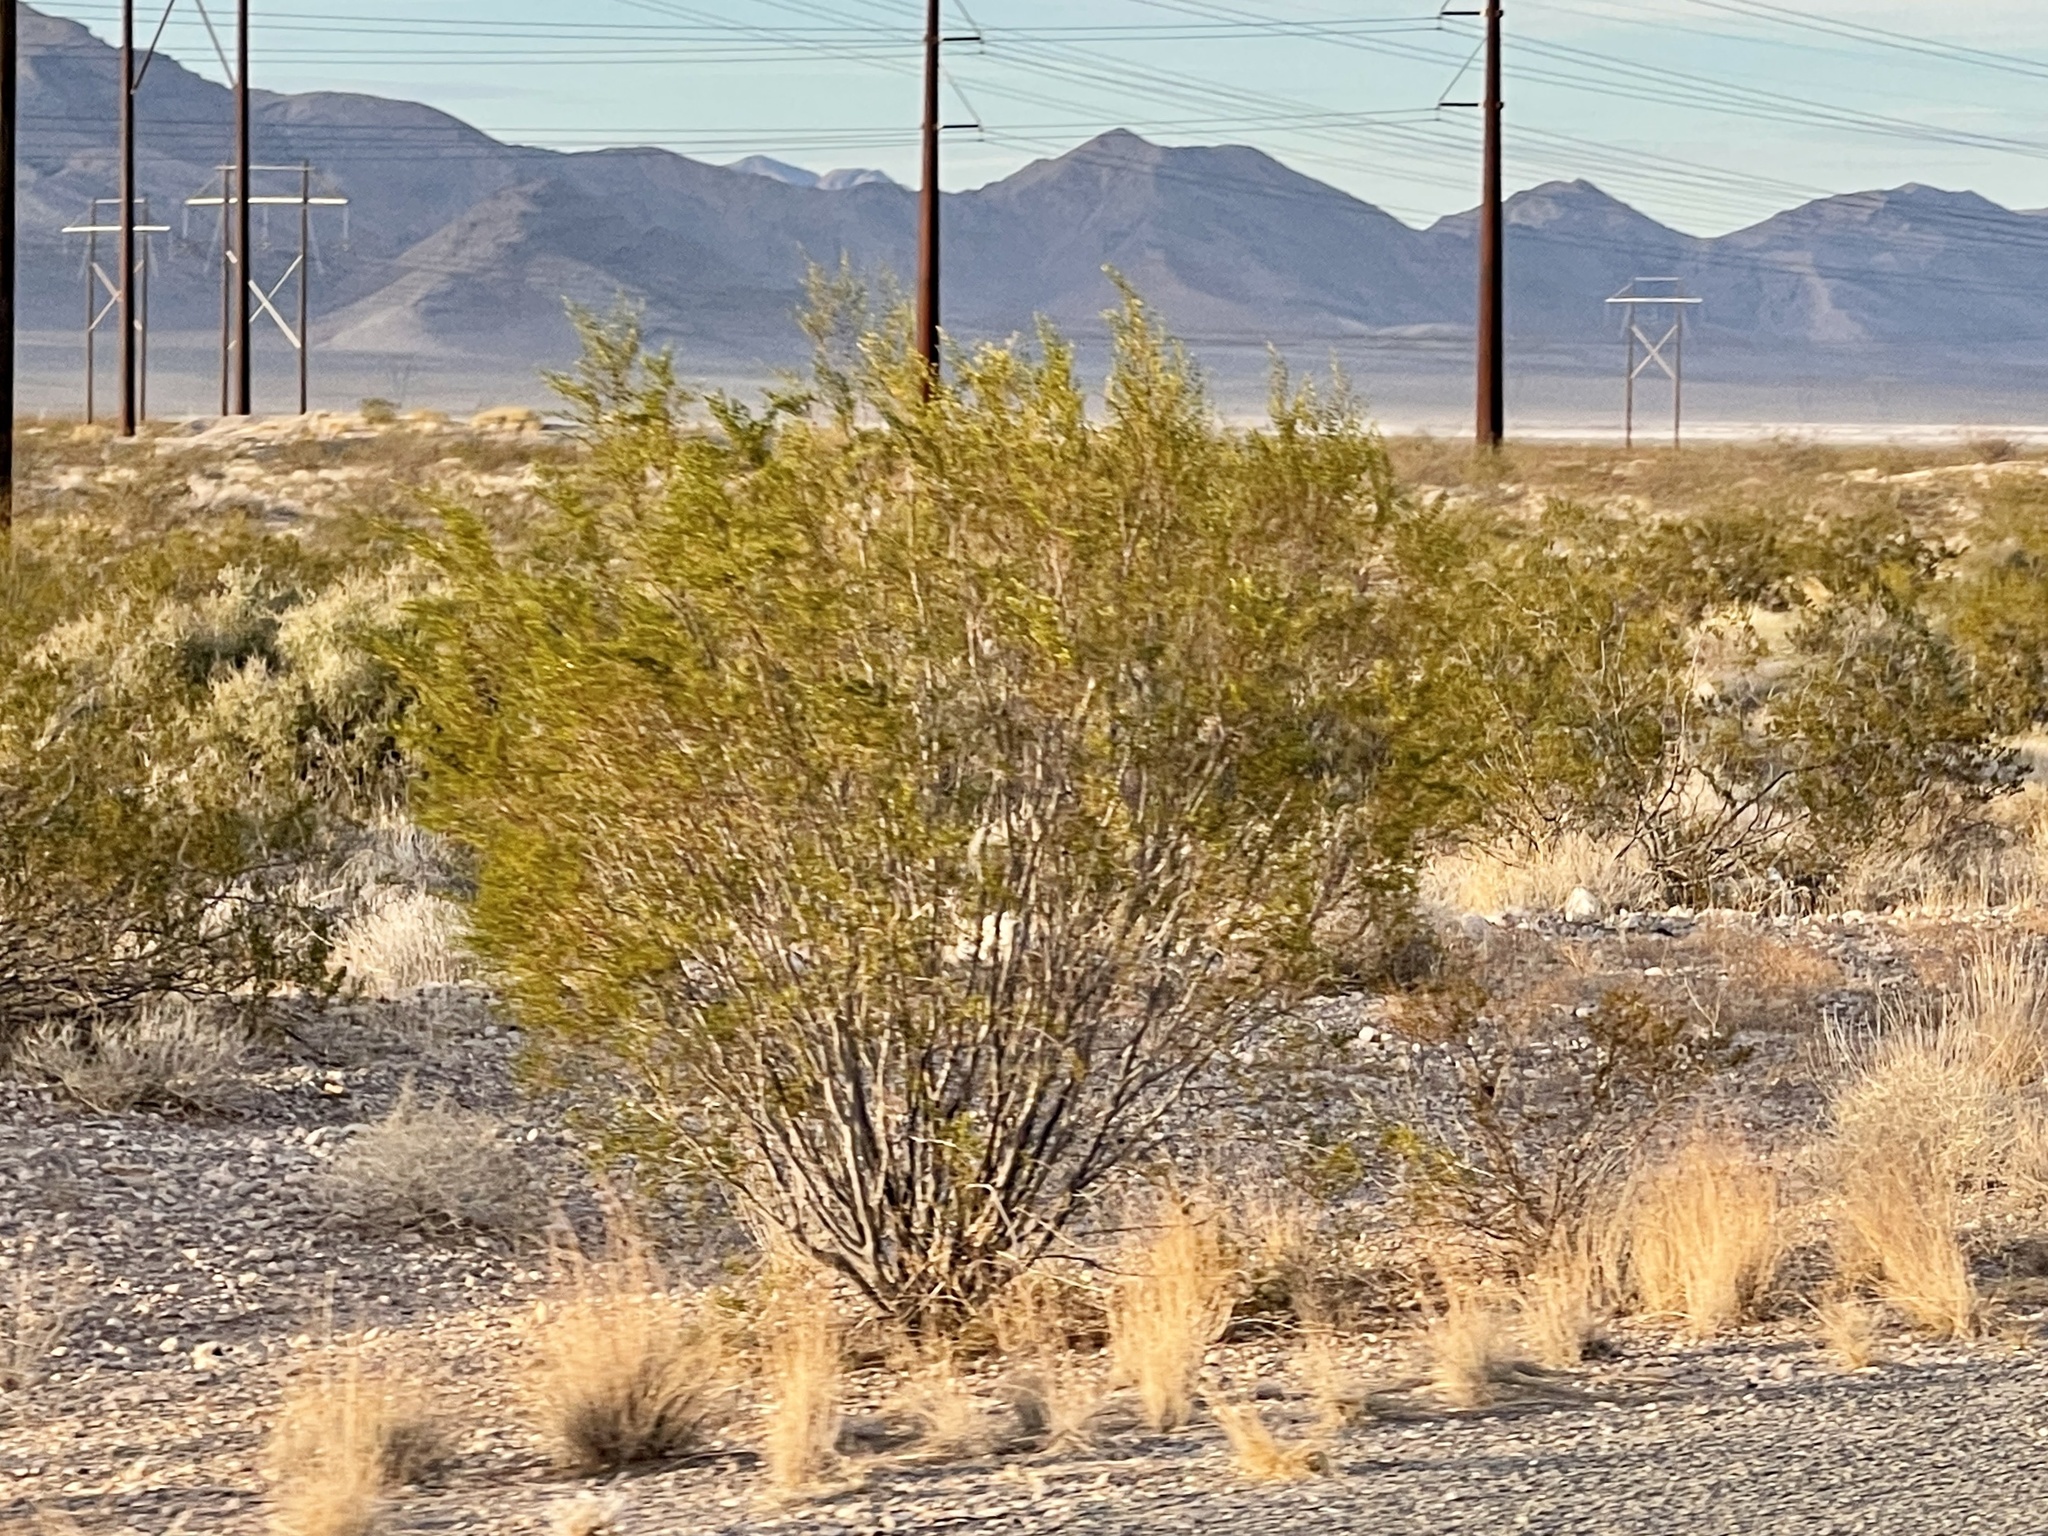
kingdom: Plantae
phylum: Tracheophyta
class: Magnoliopsida
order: Zygophyllales
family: Zygophyllaceae
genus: Larrea
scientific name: Larrea tridentata
